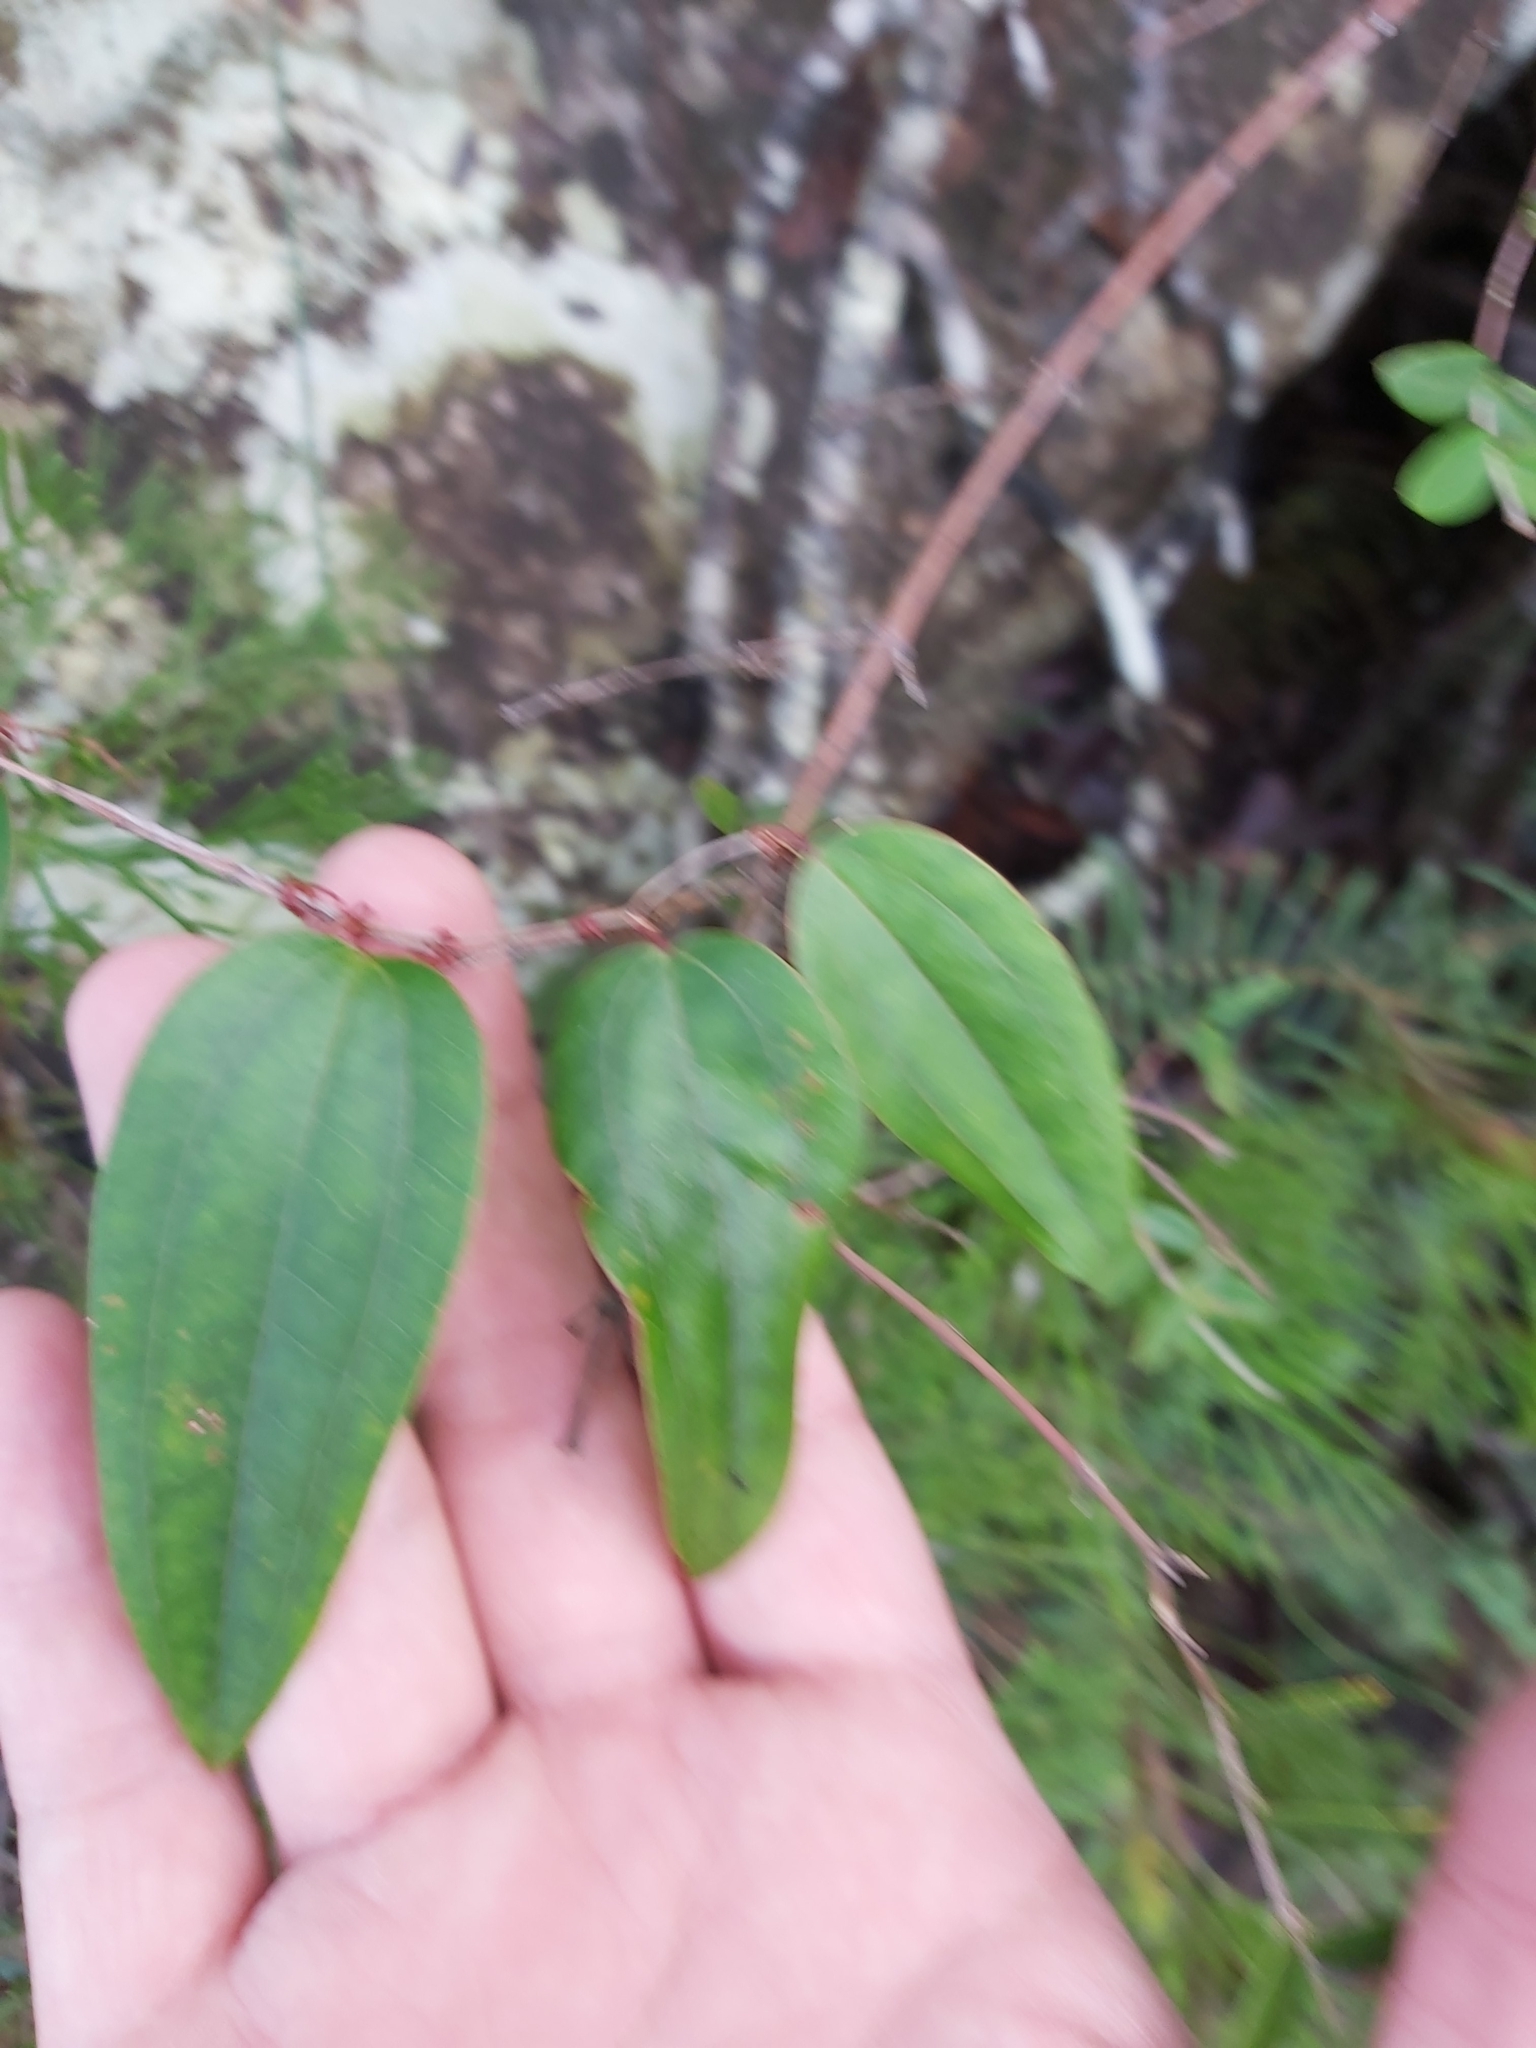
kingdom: Plantae
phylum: Tracheophyta
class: Liliopsida
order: Liliales
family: Smilacaceae
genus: Smilax
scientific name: Smilax glyciphylla
